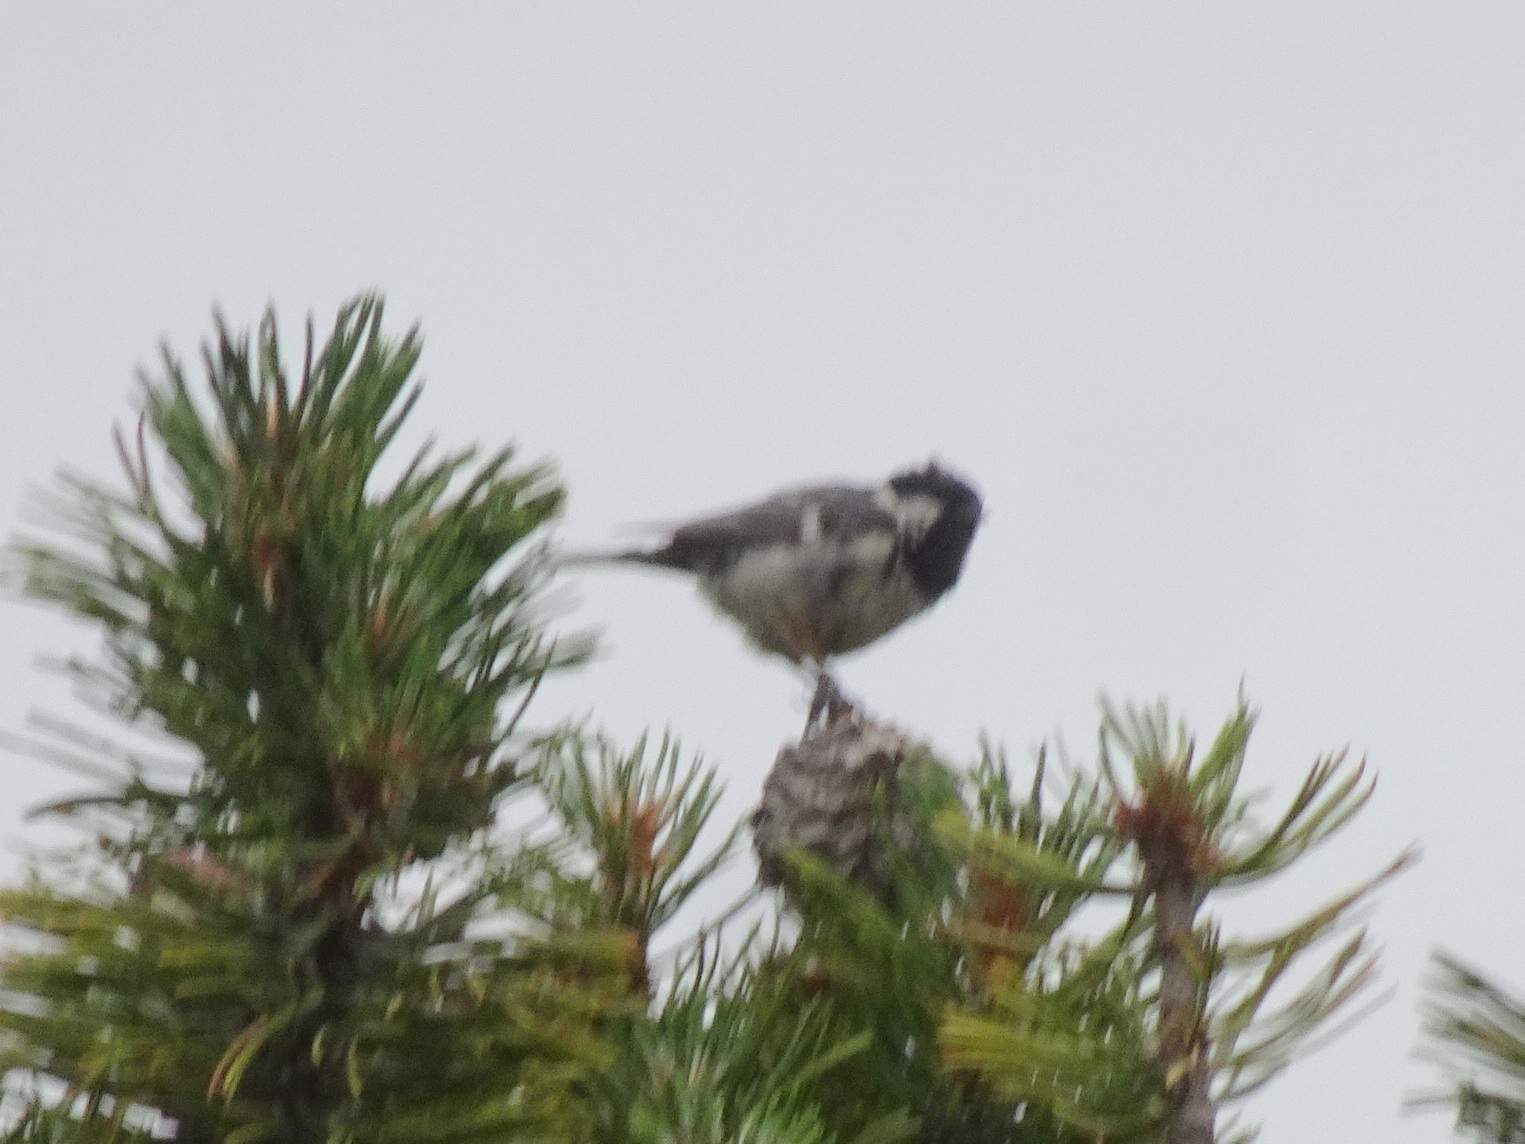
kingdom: Animalia
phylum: Chordata
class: Aves
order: Passeriformes
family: Paridae
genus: Periparus
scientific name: Periparus ater
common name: Coal tit
